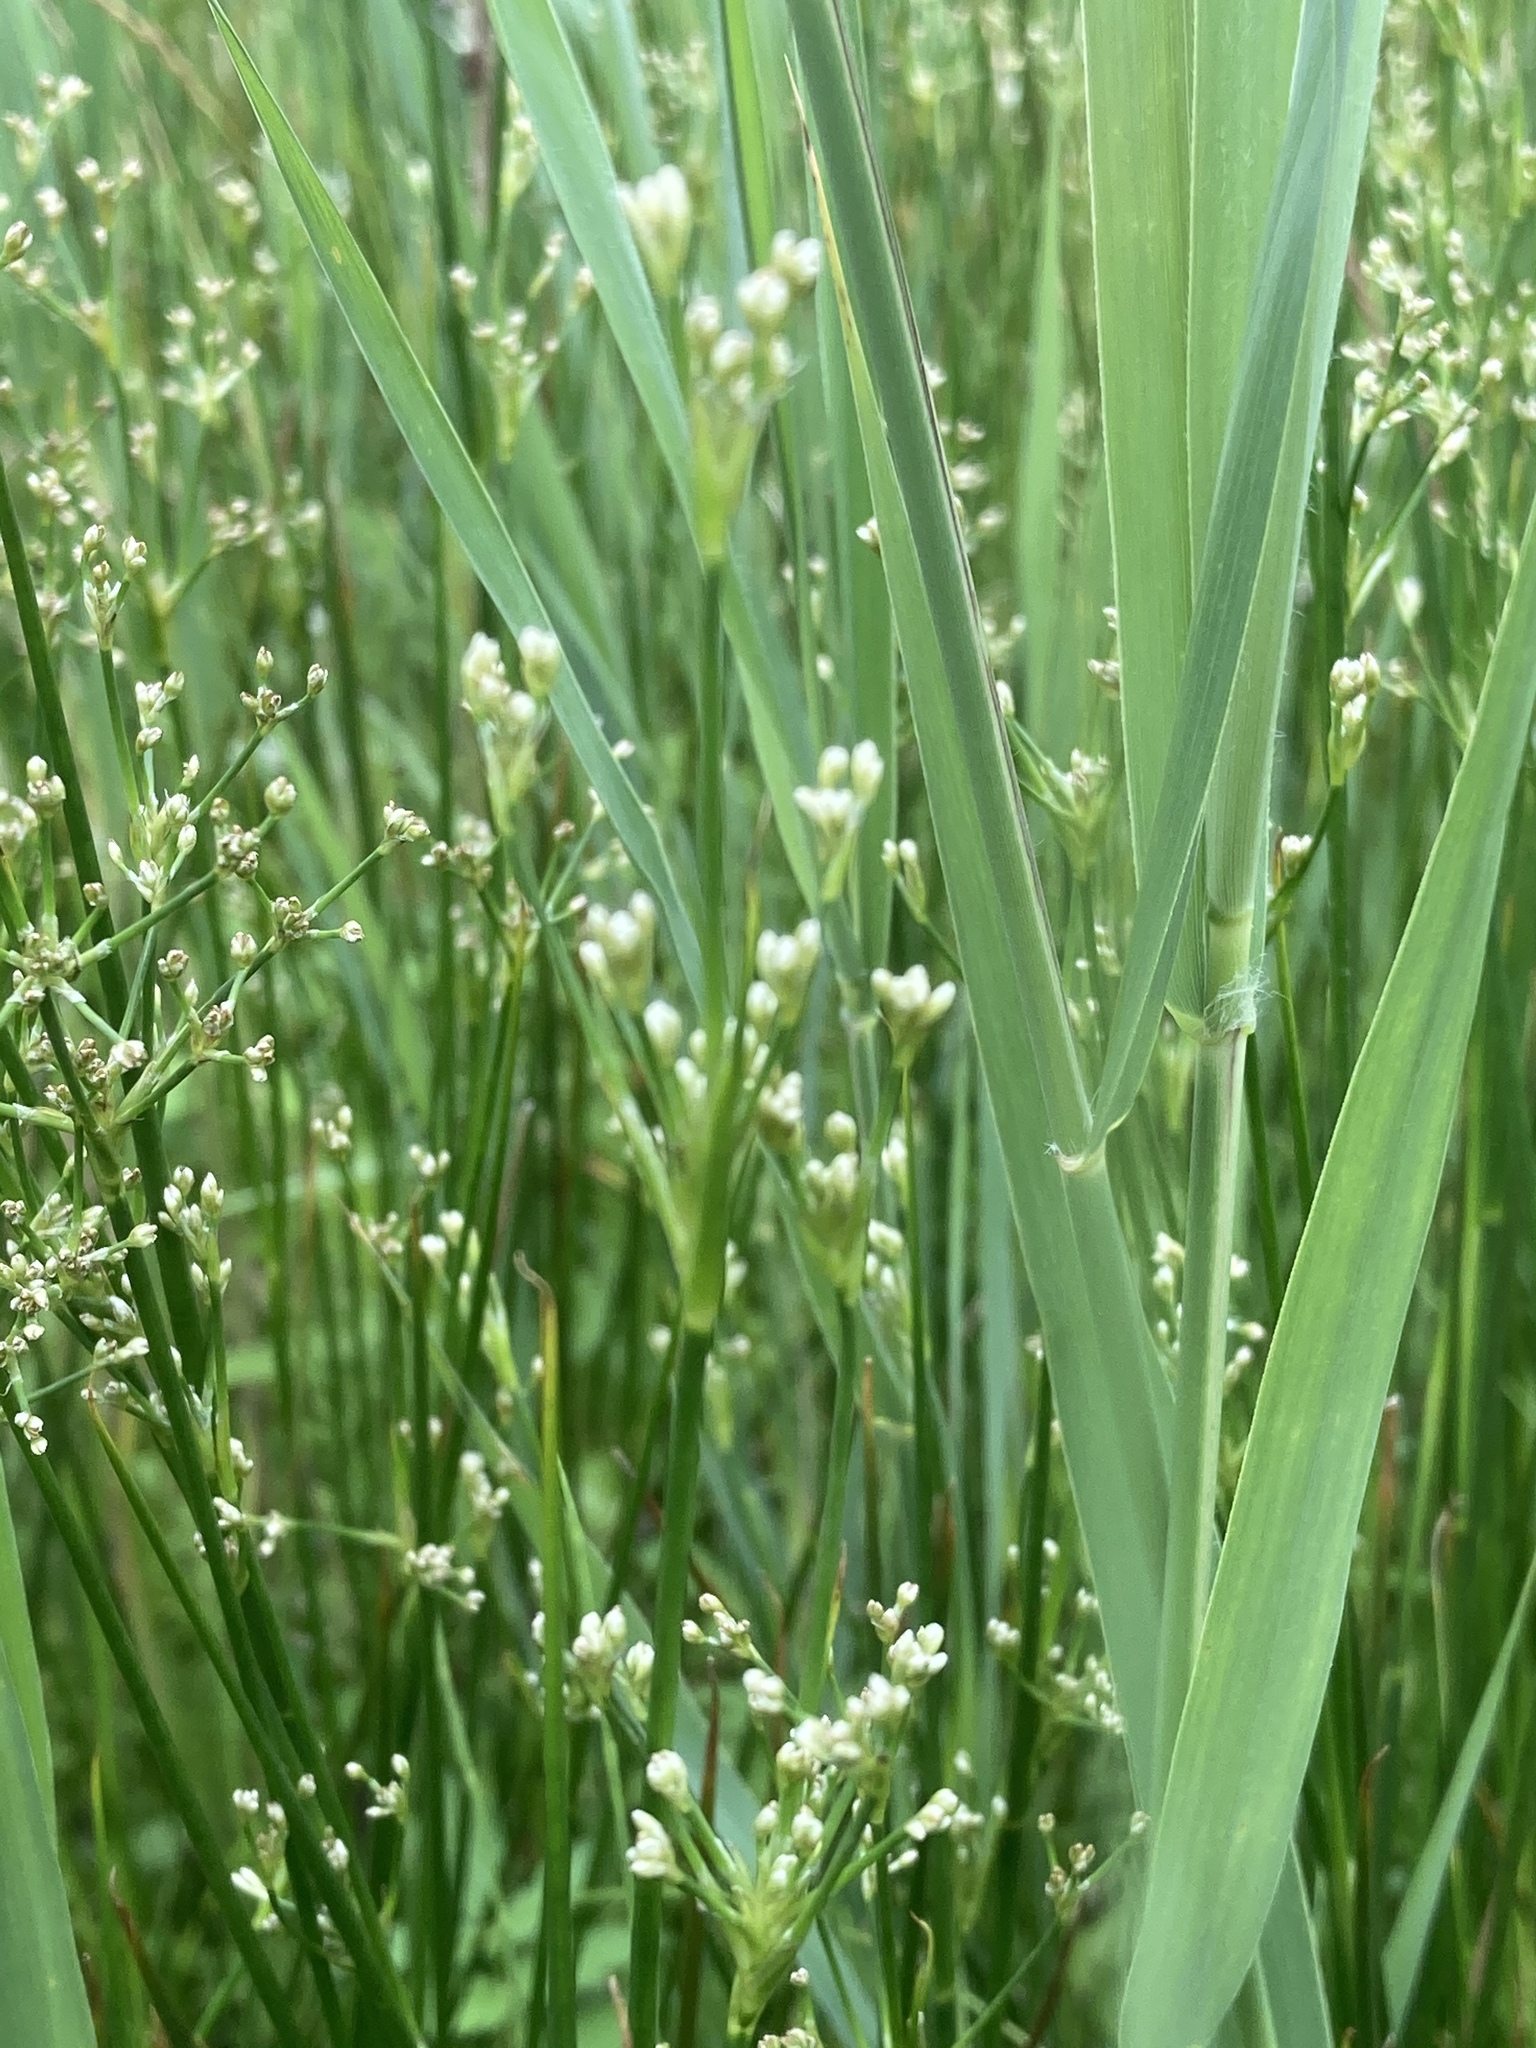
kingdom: Plantae
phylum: Tracheophyta
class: Liliopsida
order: Poales
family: Juncaceae
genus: Juncus
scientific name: Juncus subnodulosus
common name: Blunt-flowered rush
